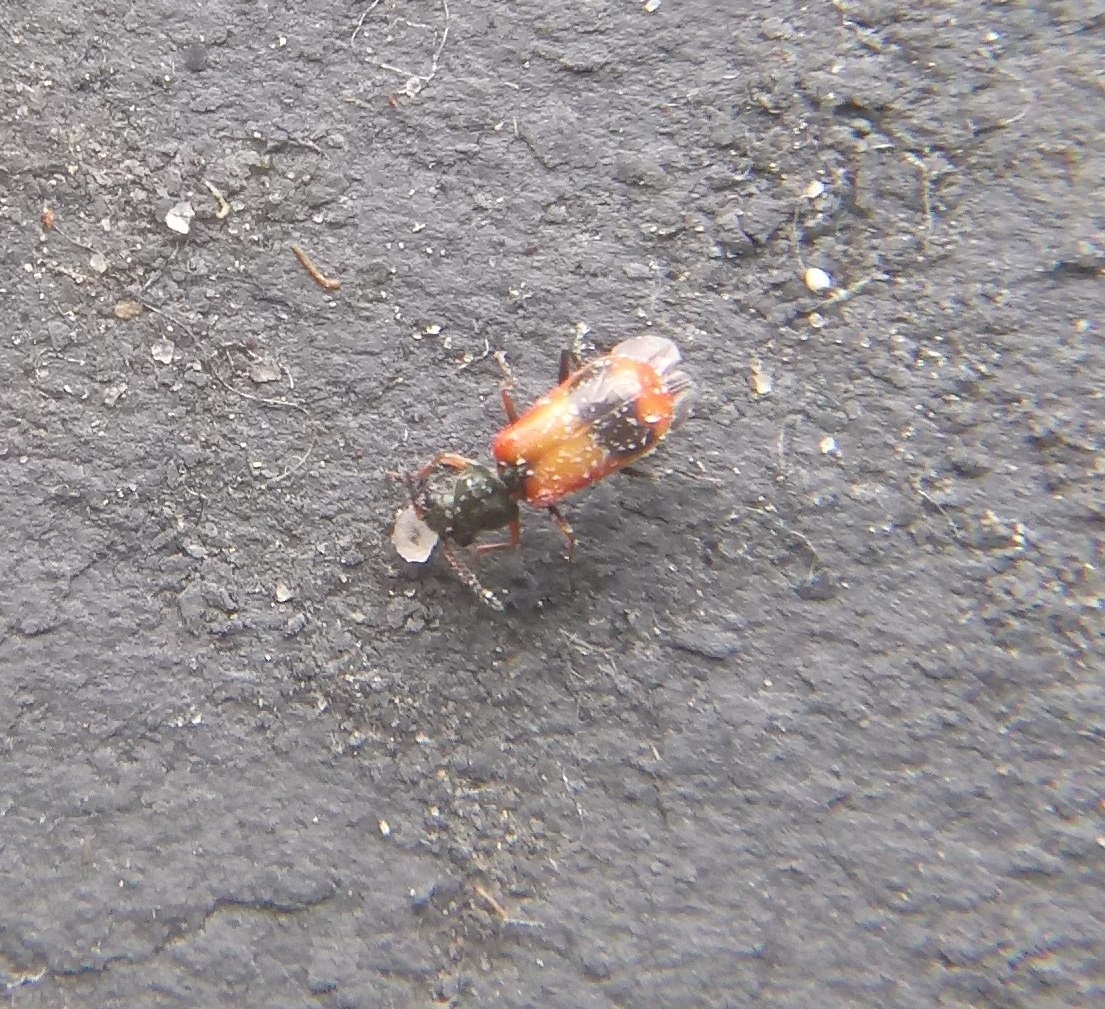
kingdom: Animalia
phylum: Arthropoda
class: Insecta
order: Coleoptera
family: Melyridae
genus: Anthocomus
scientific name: Anthocomus equestris
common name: Black-banded soft-winged flower beetle
